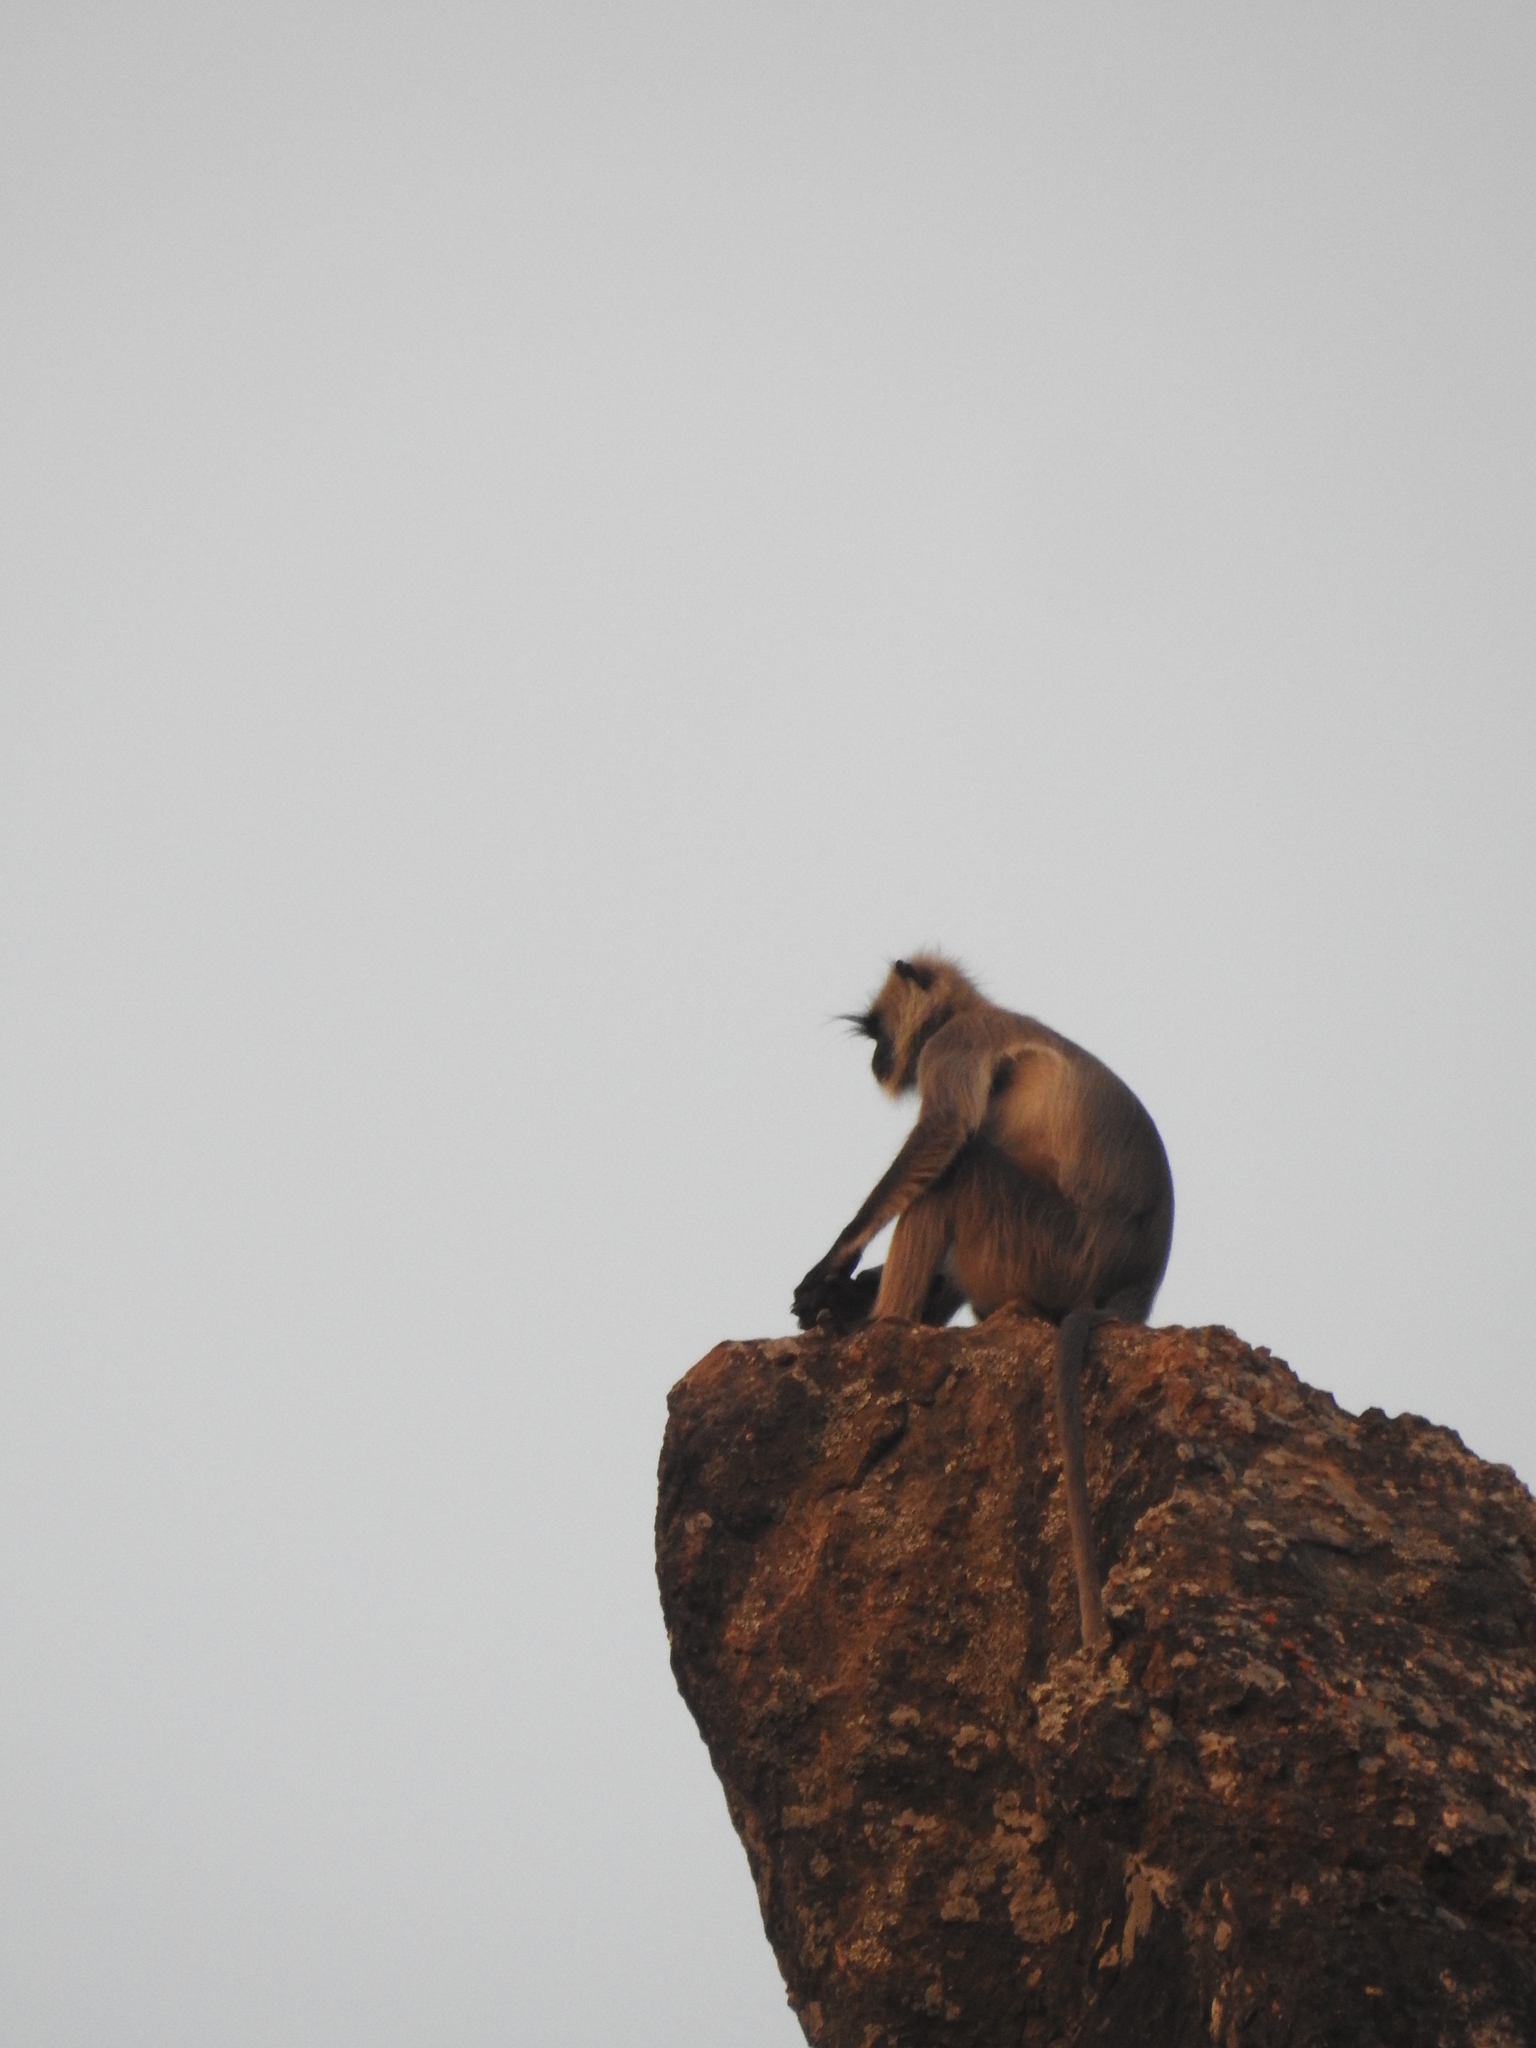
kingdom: Animalia
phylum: Chordata
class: Mammalia
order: Primates
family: Cercopithecidae
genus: Semnopithecus
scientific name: Semnopithecus entellus
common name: Northern plains gray langur
